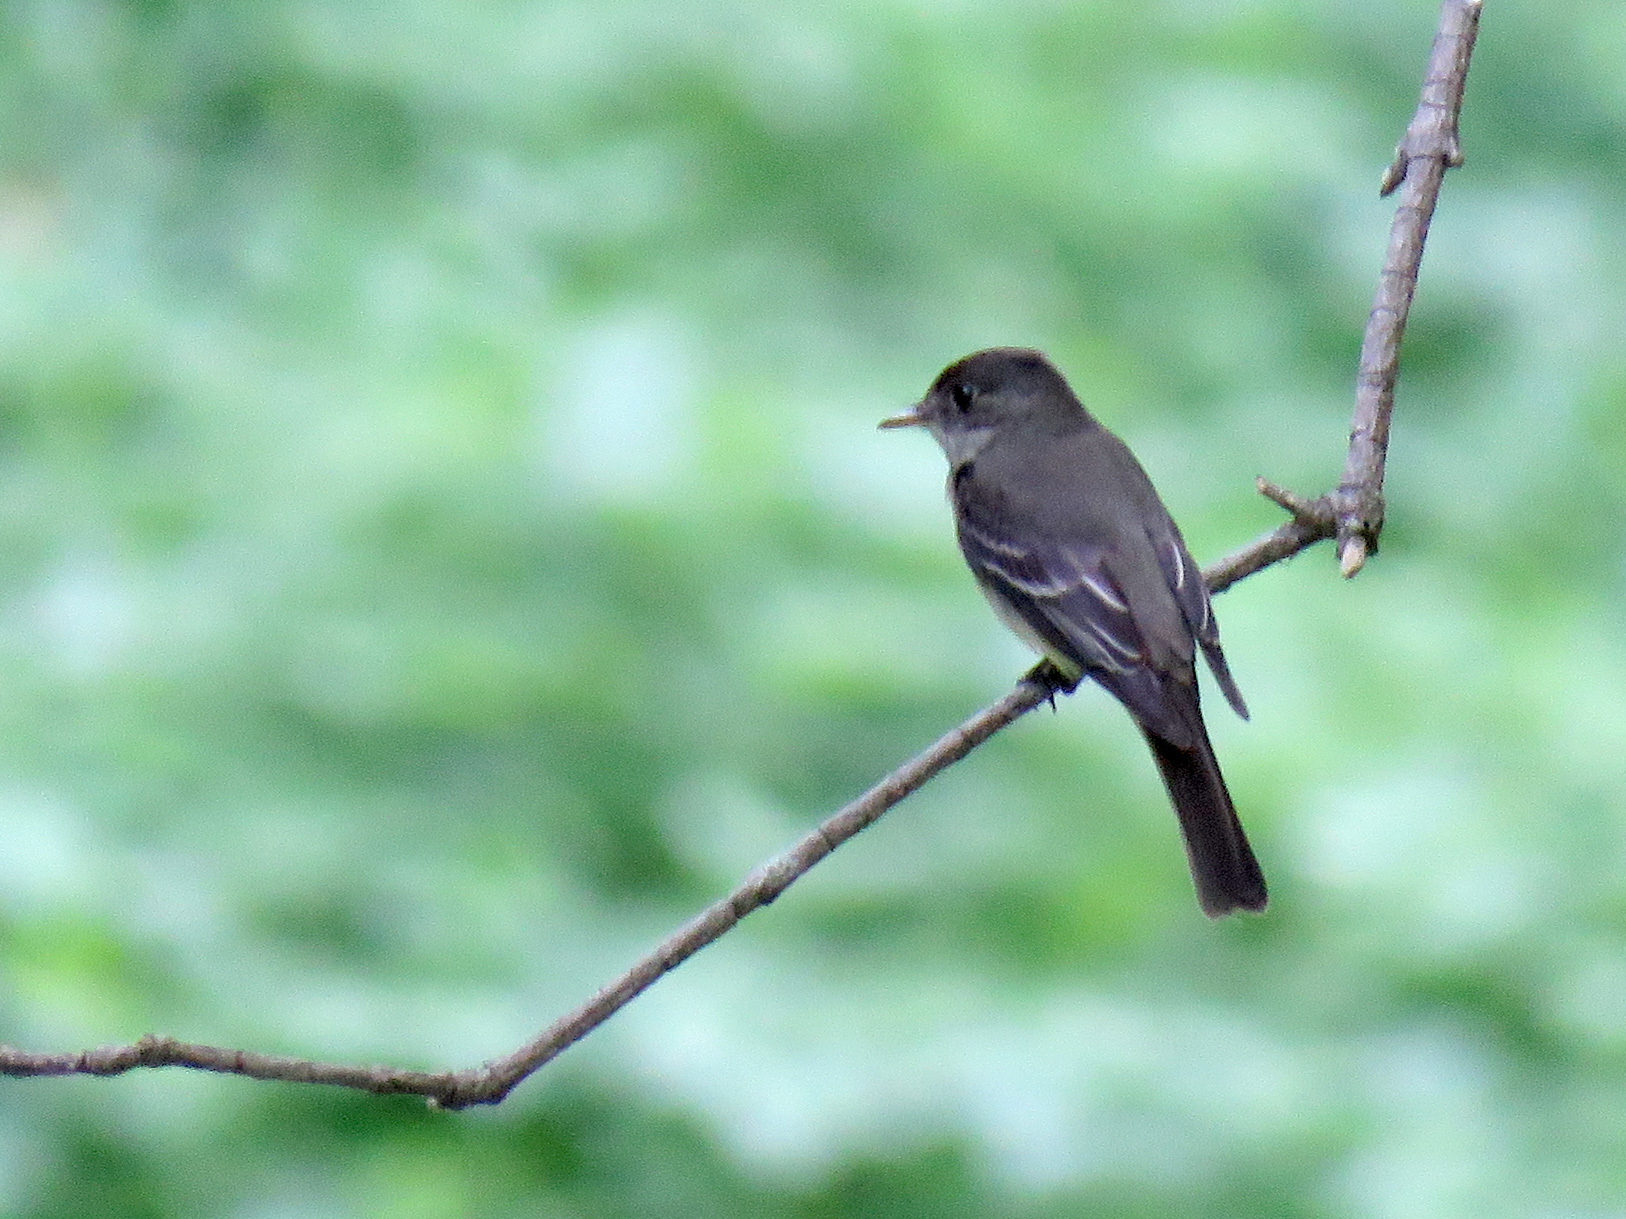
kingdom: Animalia
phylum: Chordata
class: Aves
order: Passeriformes
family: Tyrannidae
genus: Contopus
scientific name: Contopus virens
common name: Eastern wood-pewee
